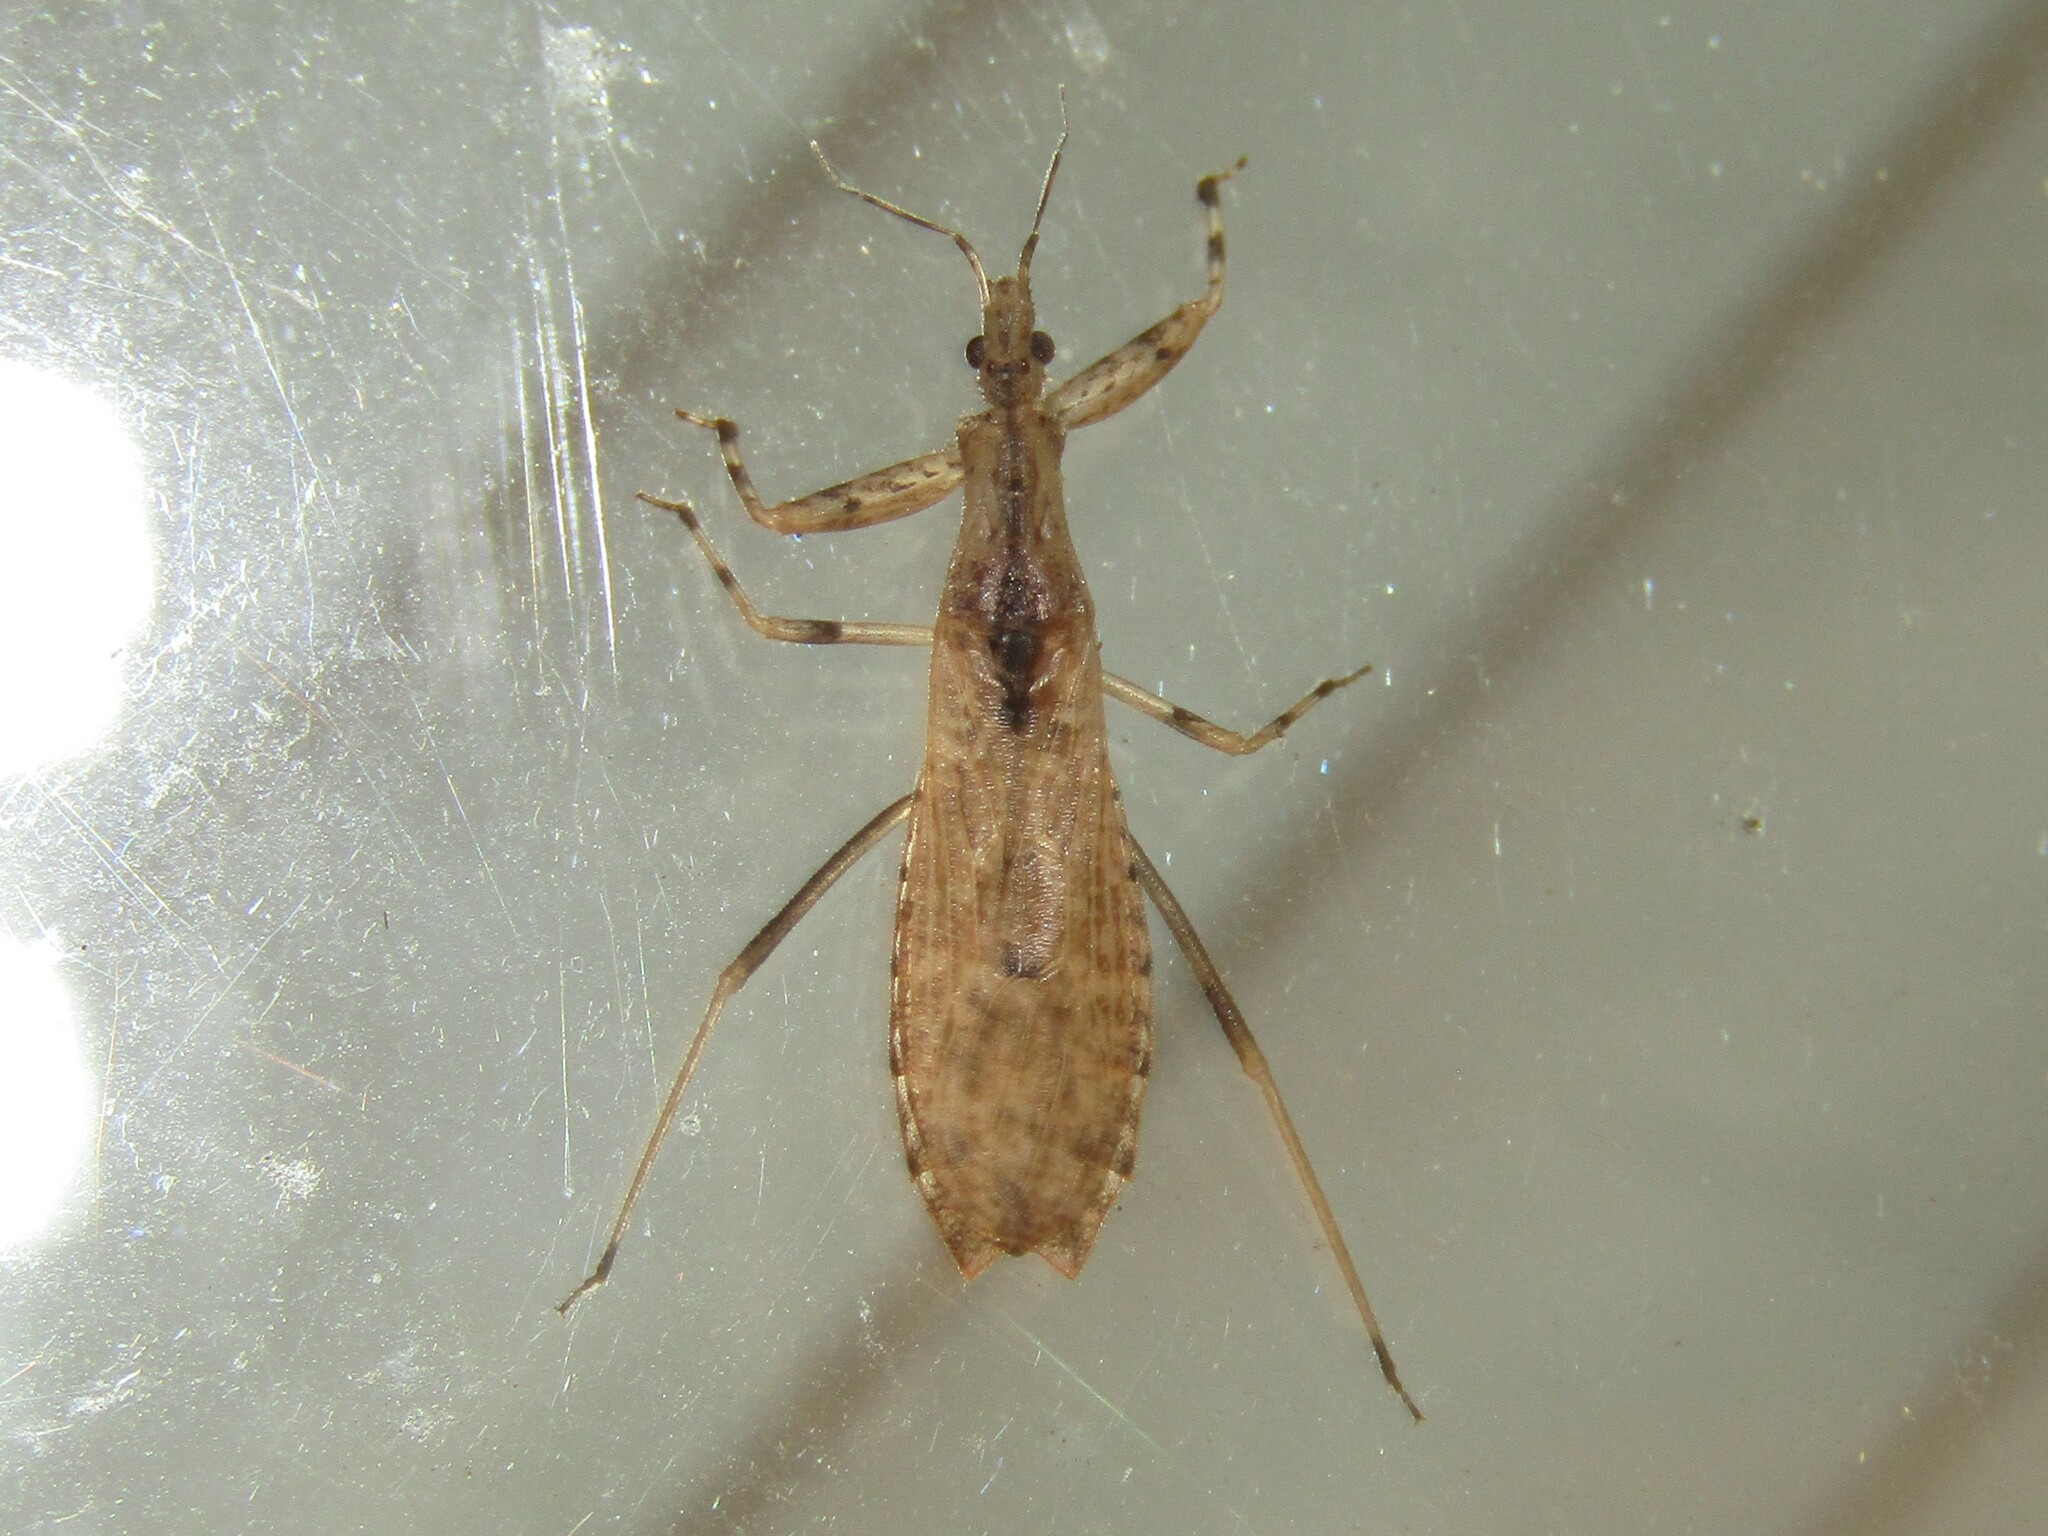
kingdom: Animalia
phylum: Arthropoda
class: Insecta
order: Hemiptera
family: Reduviidae
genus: Ctenotrachelus
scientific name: Ctenotrachelus shermani
